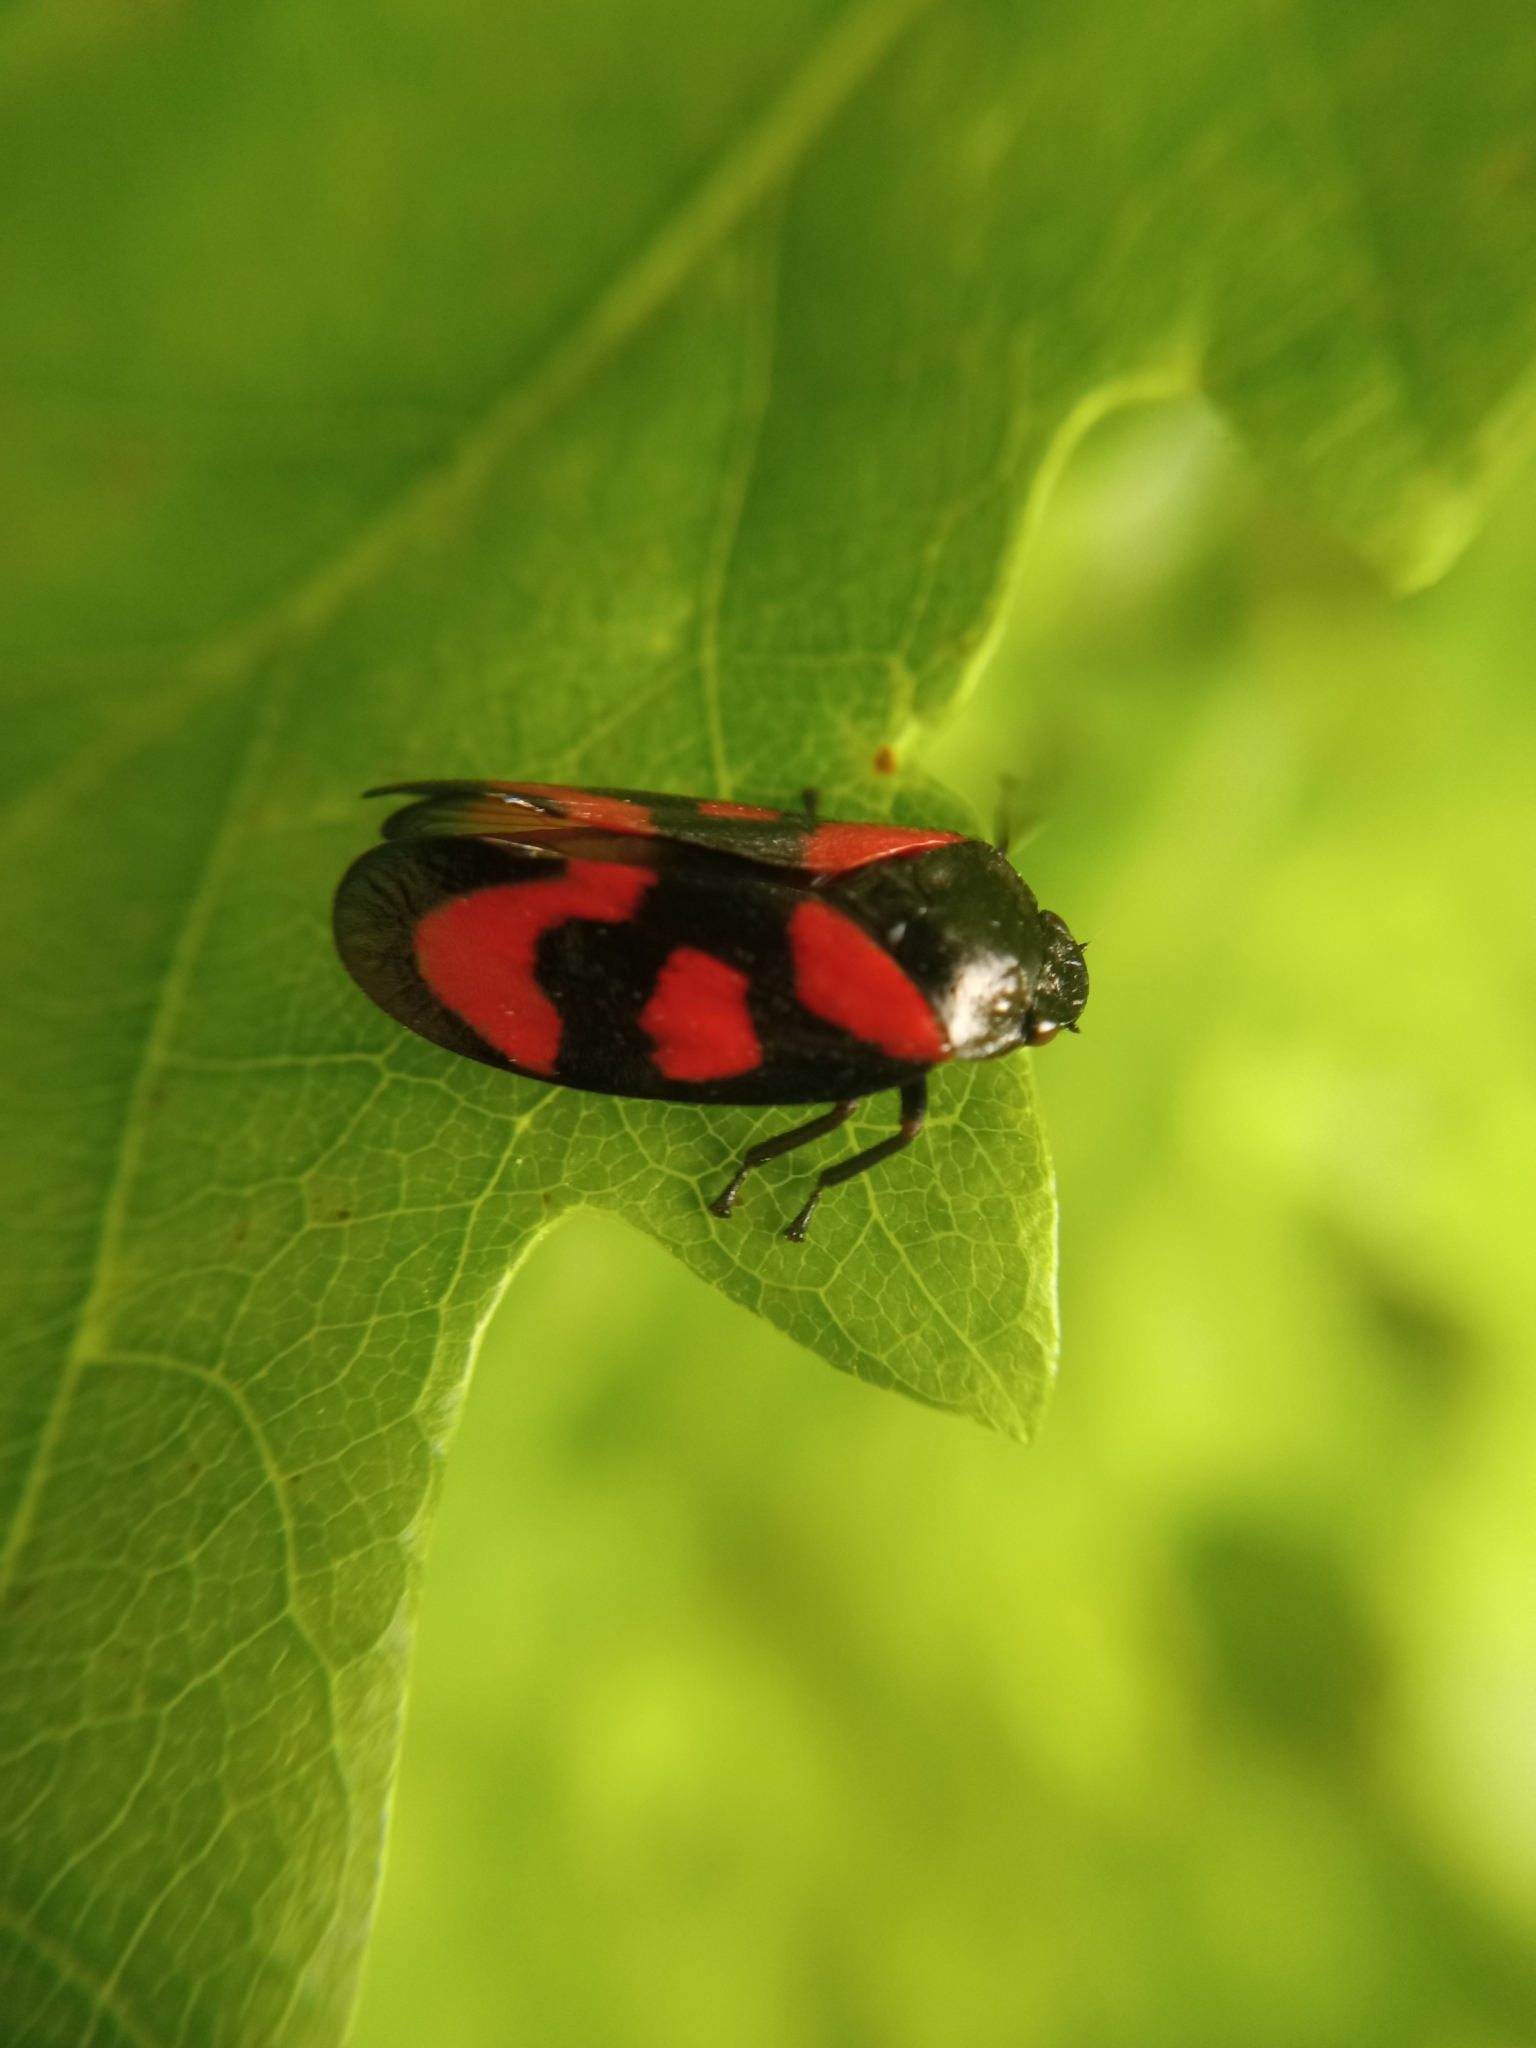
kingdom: Animalia
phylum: Arthropoda
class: Insecta
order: Hemiptera
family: Cercopidae
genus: Cercopis
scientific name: Cercopis vulnerata
